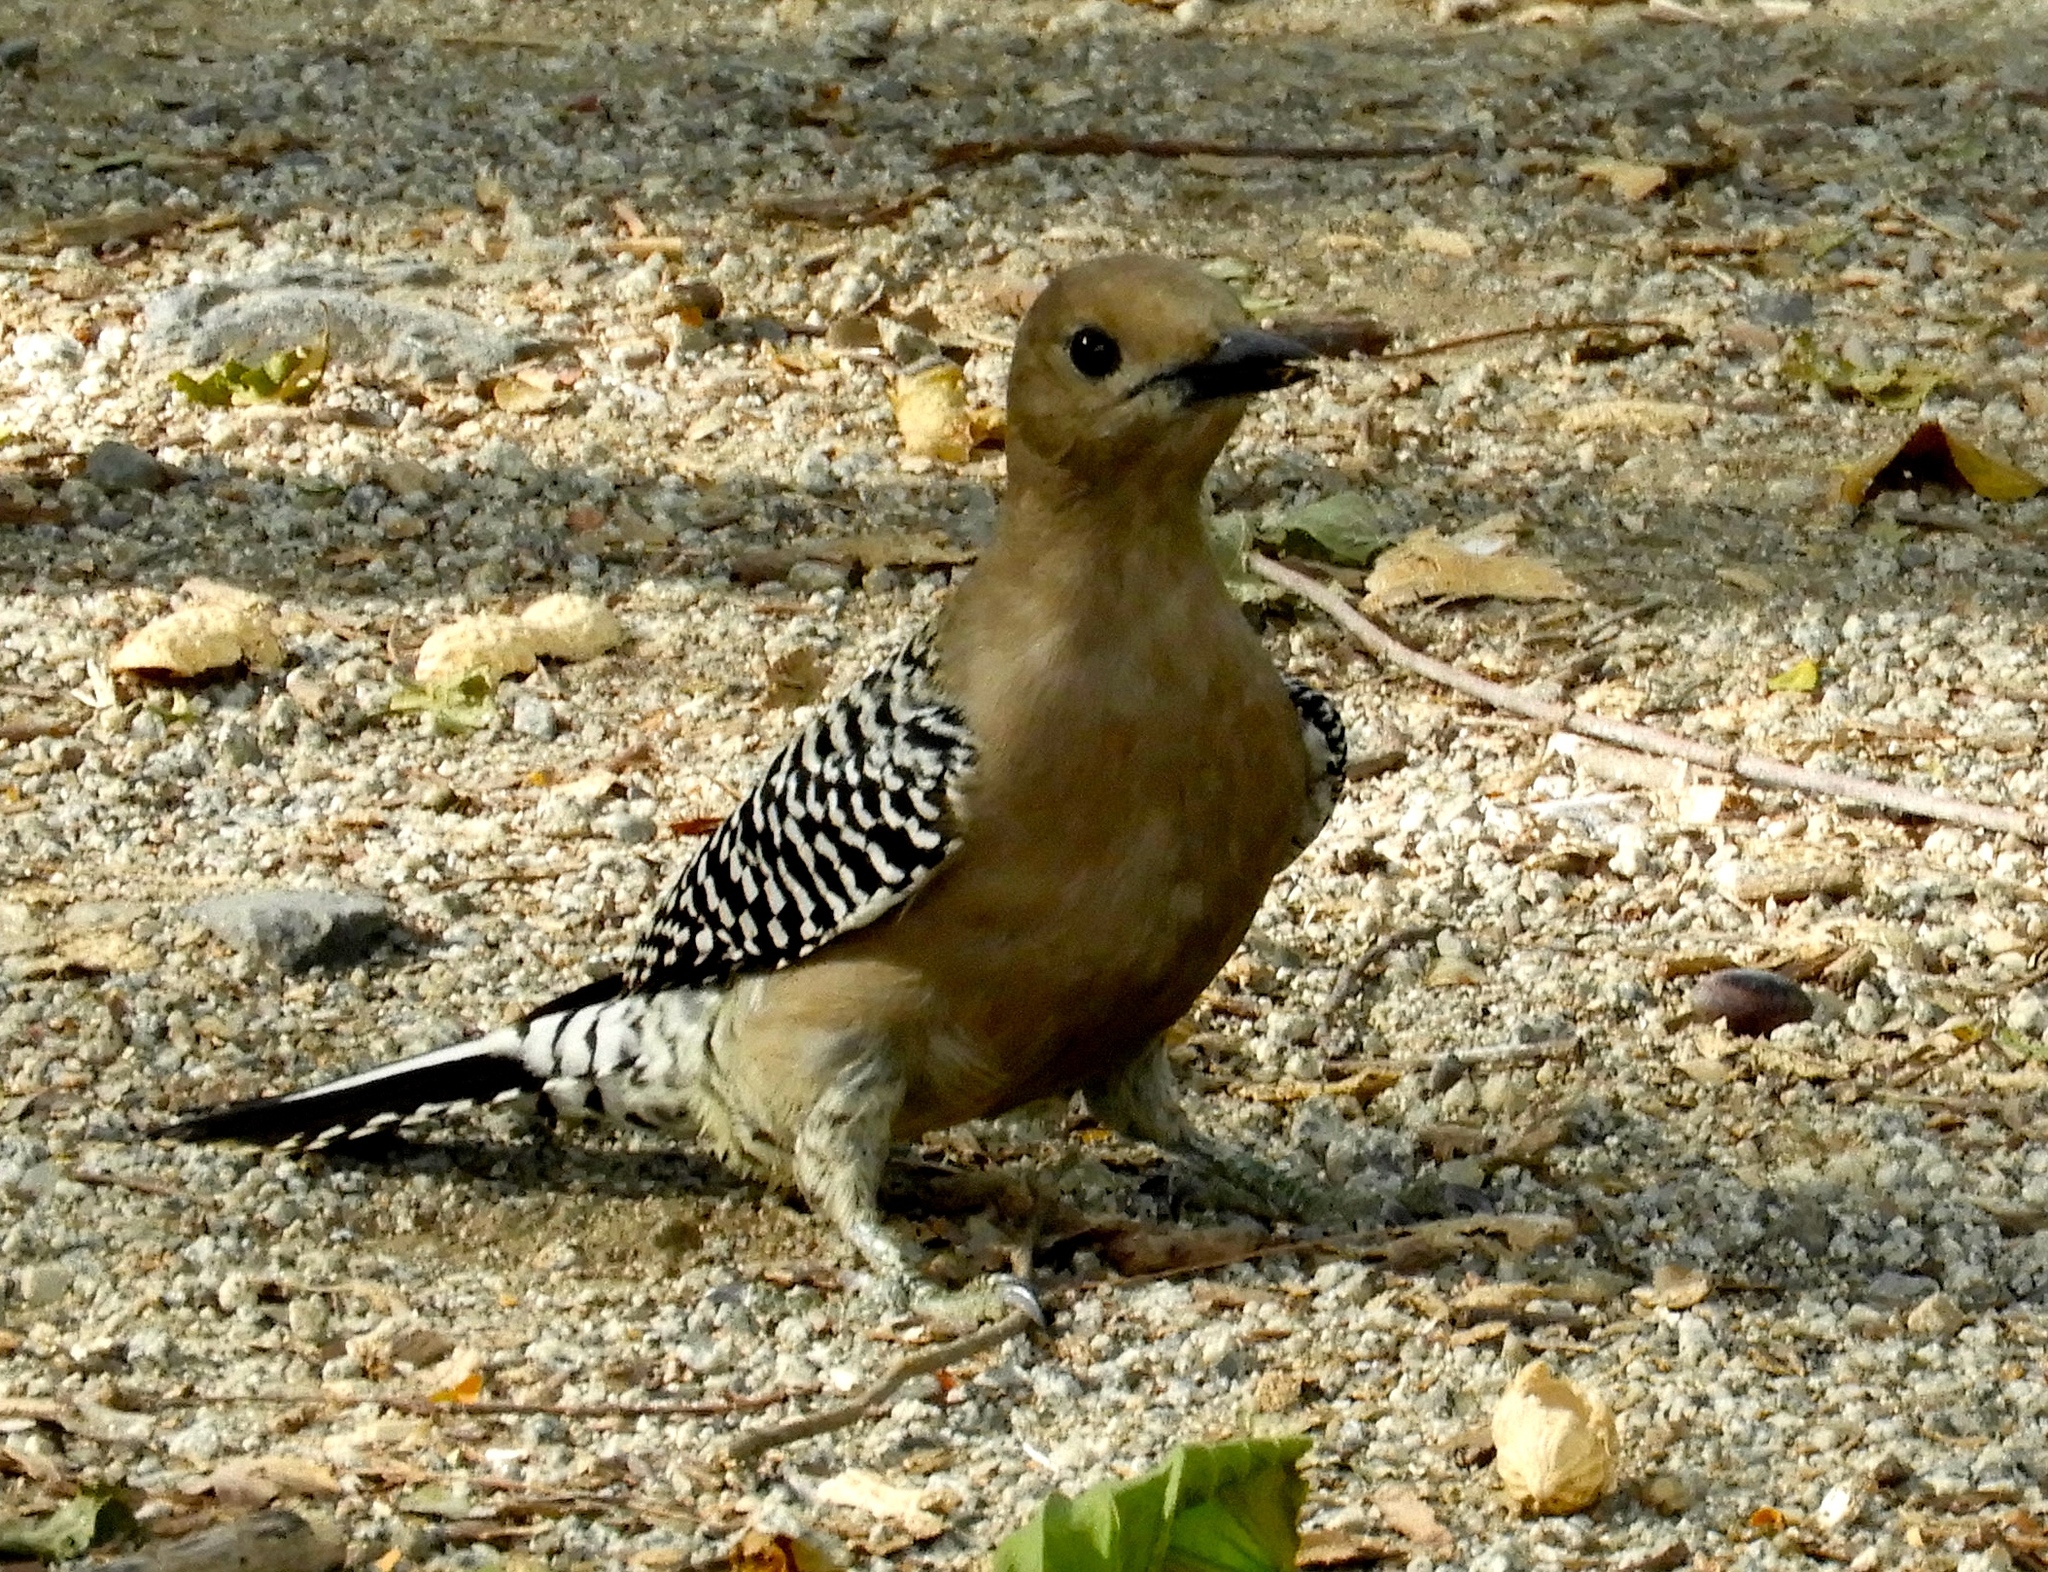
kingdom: Animalia
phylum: Chordata
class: Aves
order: Piciformes
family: Picidae
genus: Melanerpes
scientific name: Melanerpes uropygialis
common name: Gila woodpecker
